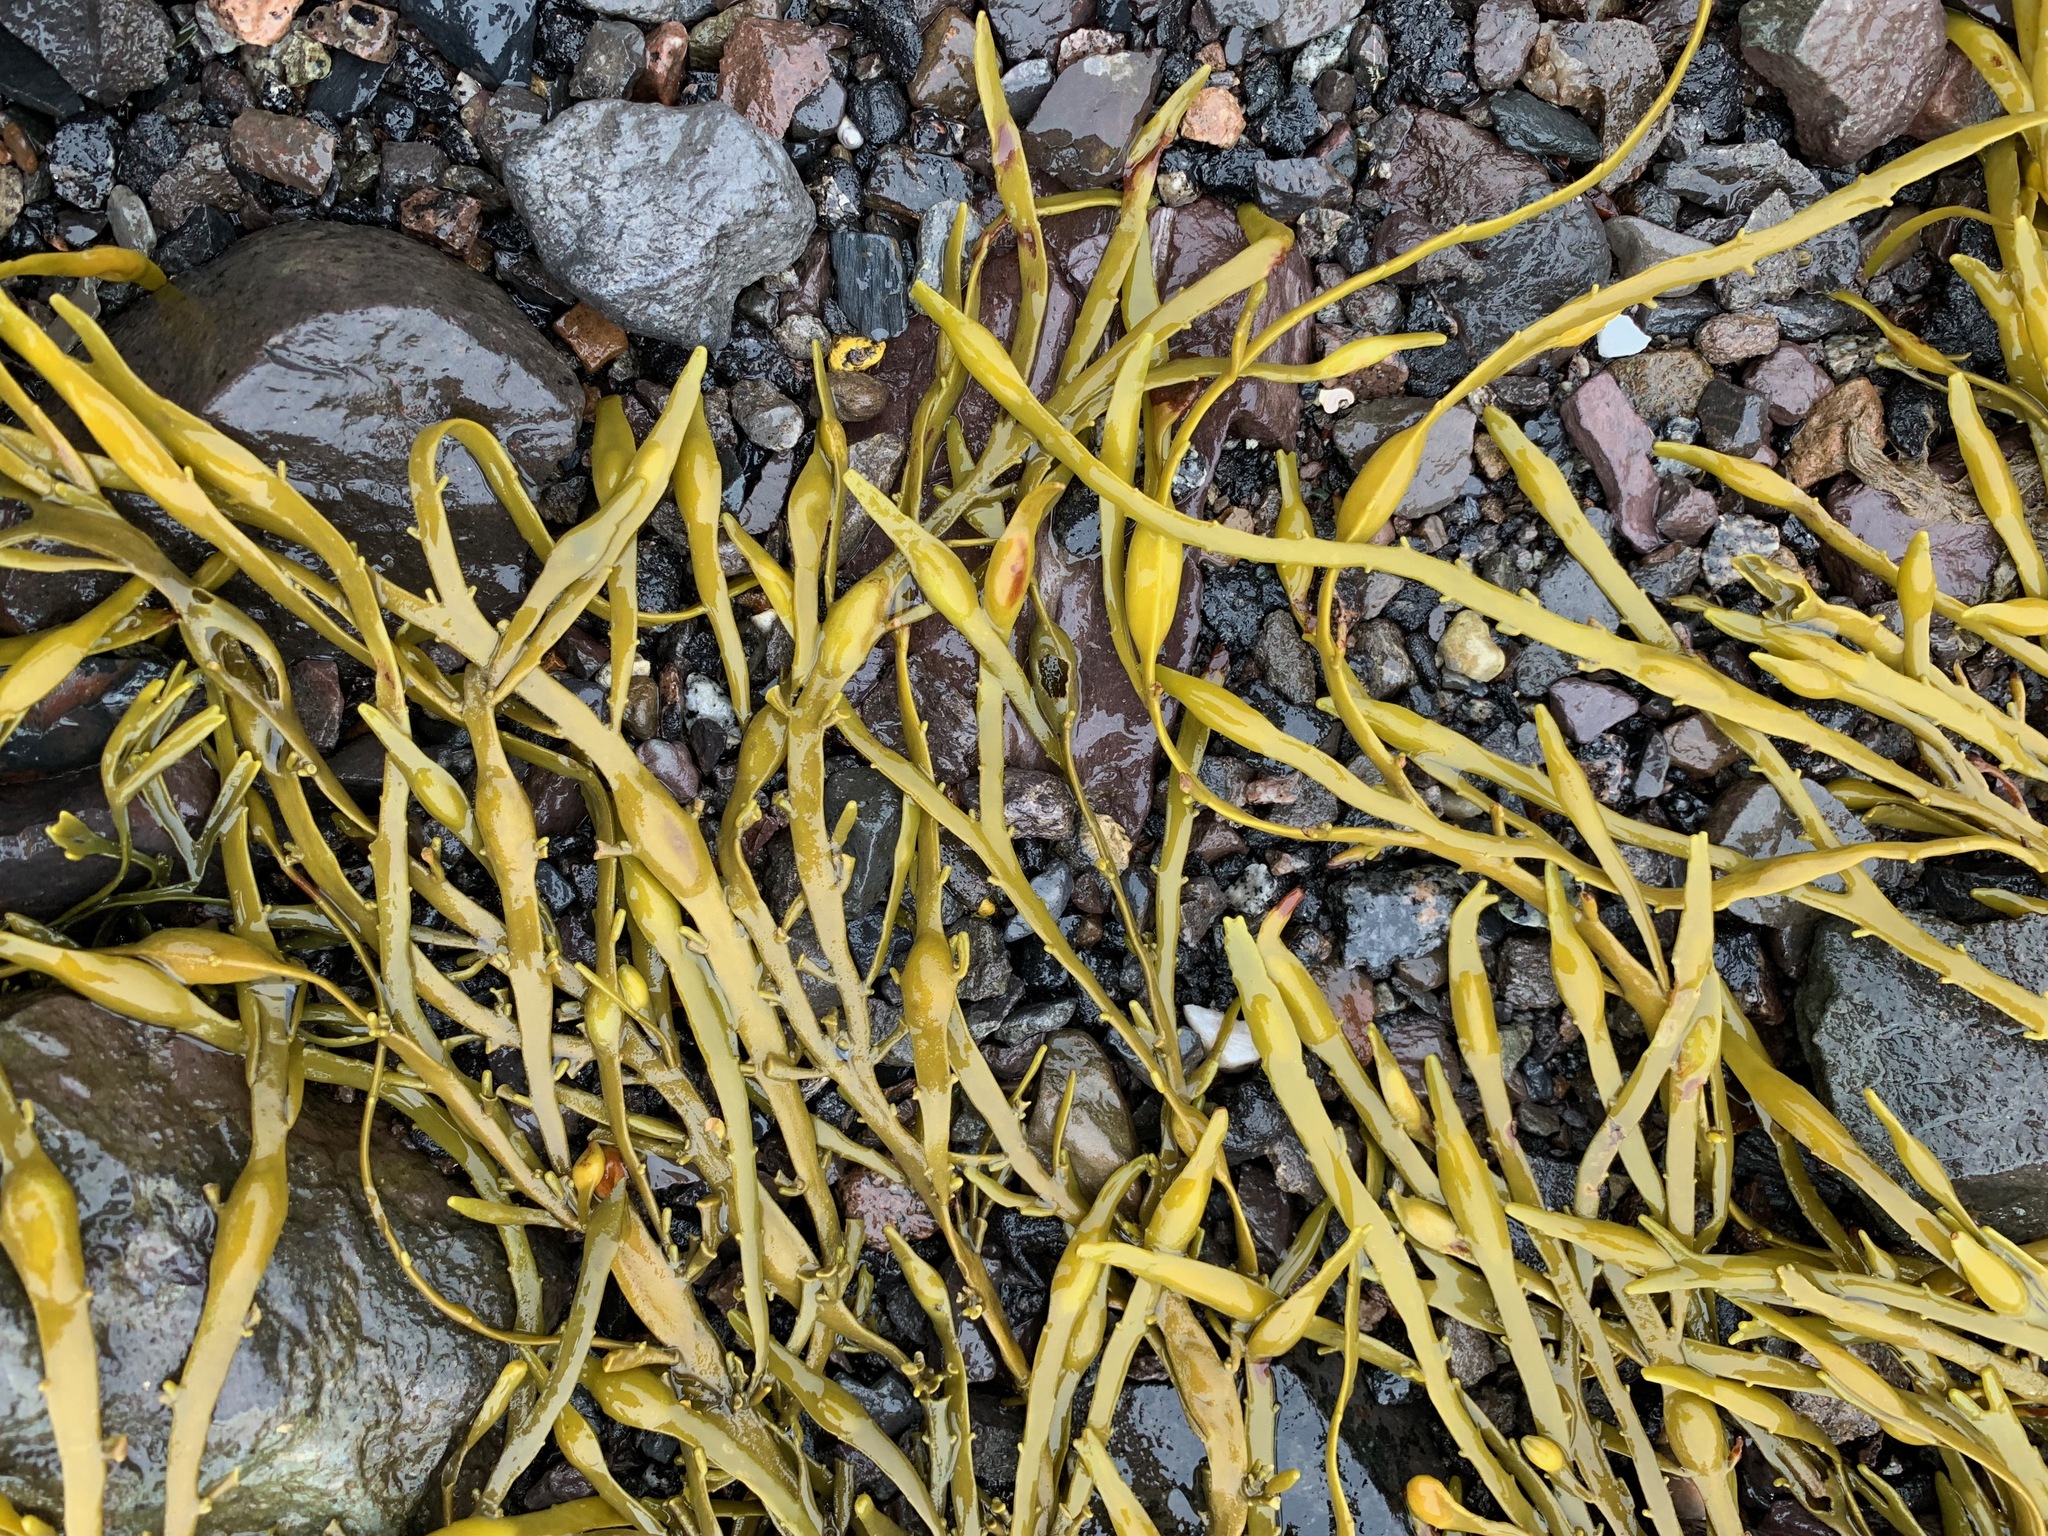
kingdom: Chromista
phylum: Ochrophyta
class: Phaeophyceae
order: Fucales
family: Fucaceae
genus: Ascophyllum
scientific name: Ascophyllum nodosum
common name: Knotted wrack
